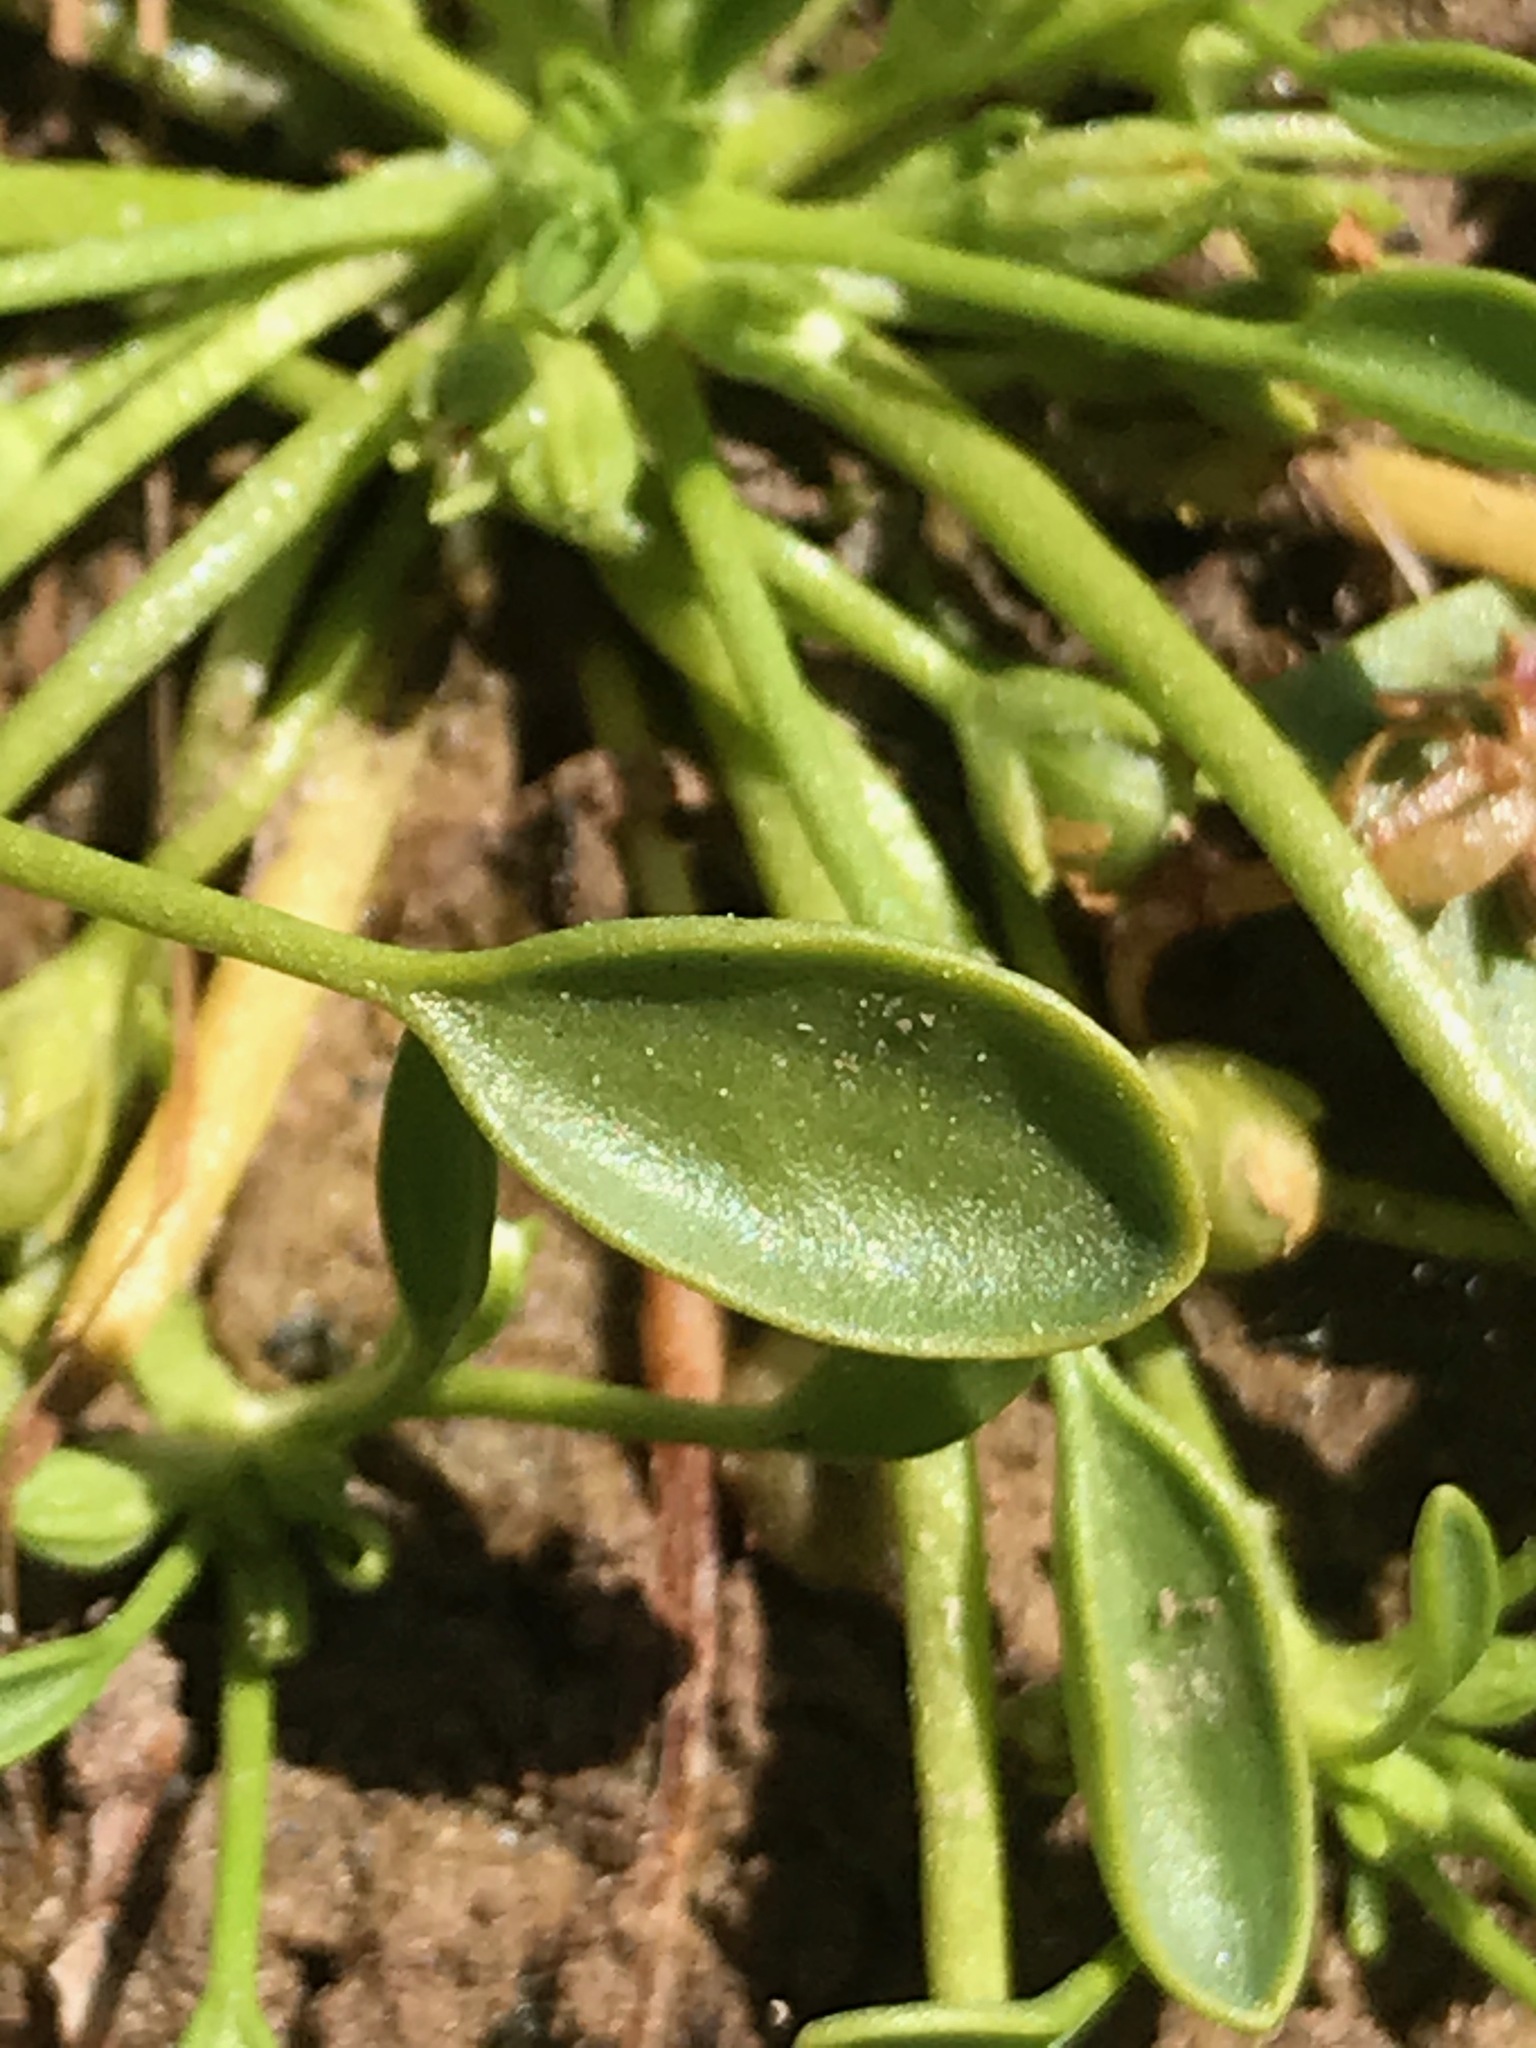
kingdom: Plantae
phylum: Tracheophyta
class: Magnoliopsida
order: Lamiales
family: Scrophulariaceae
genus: Limosella
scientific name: Limosella aquatica
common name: Mudwort
